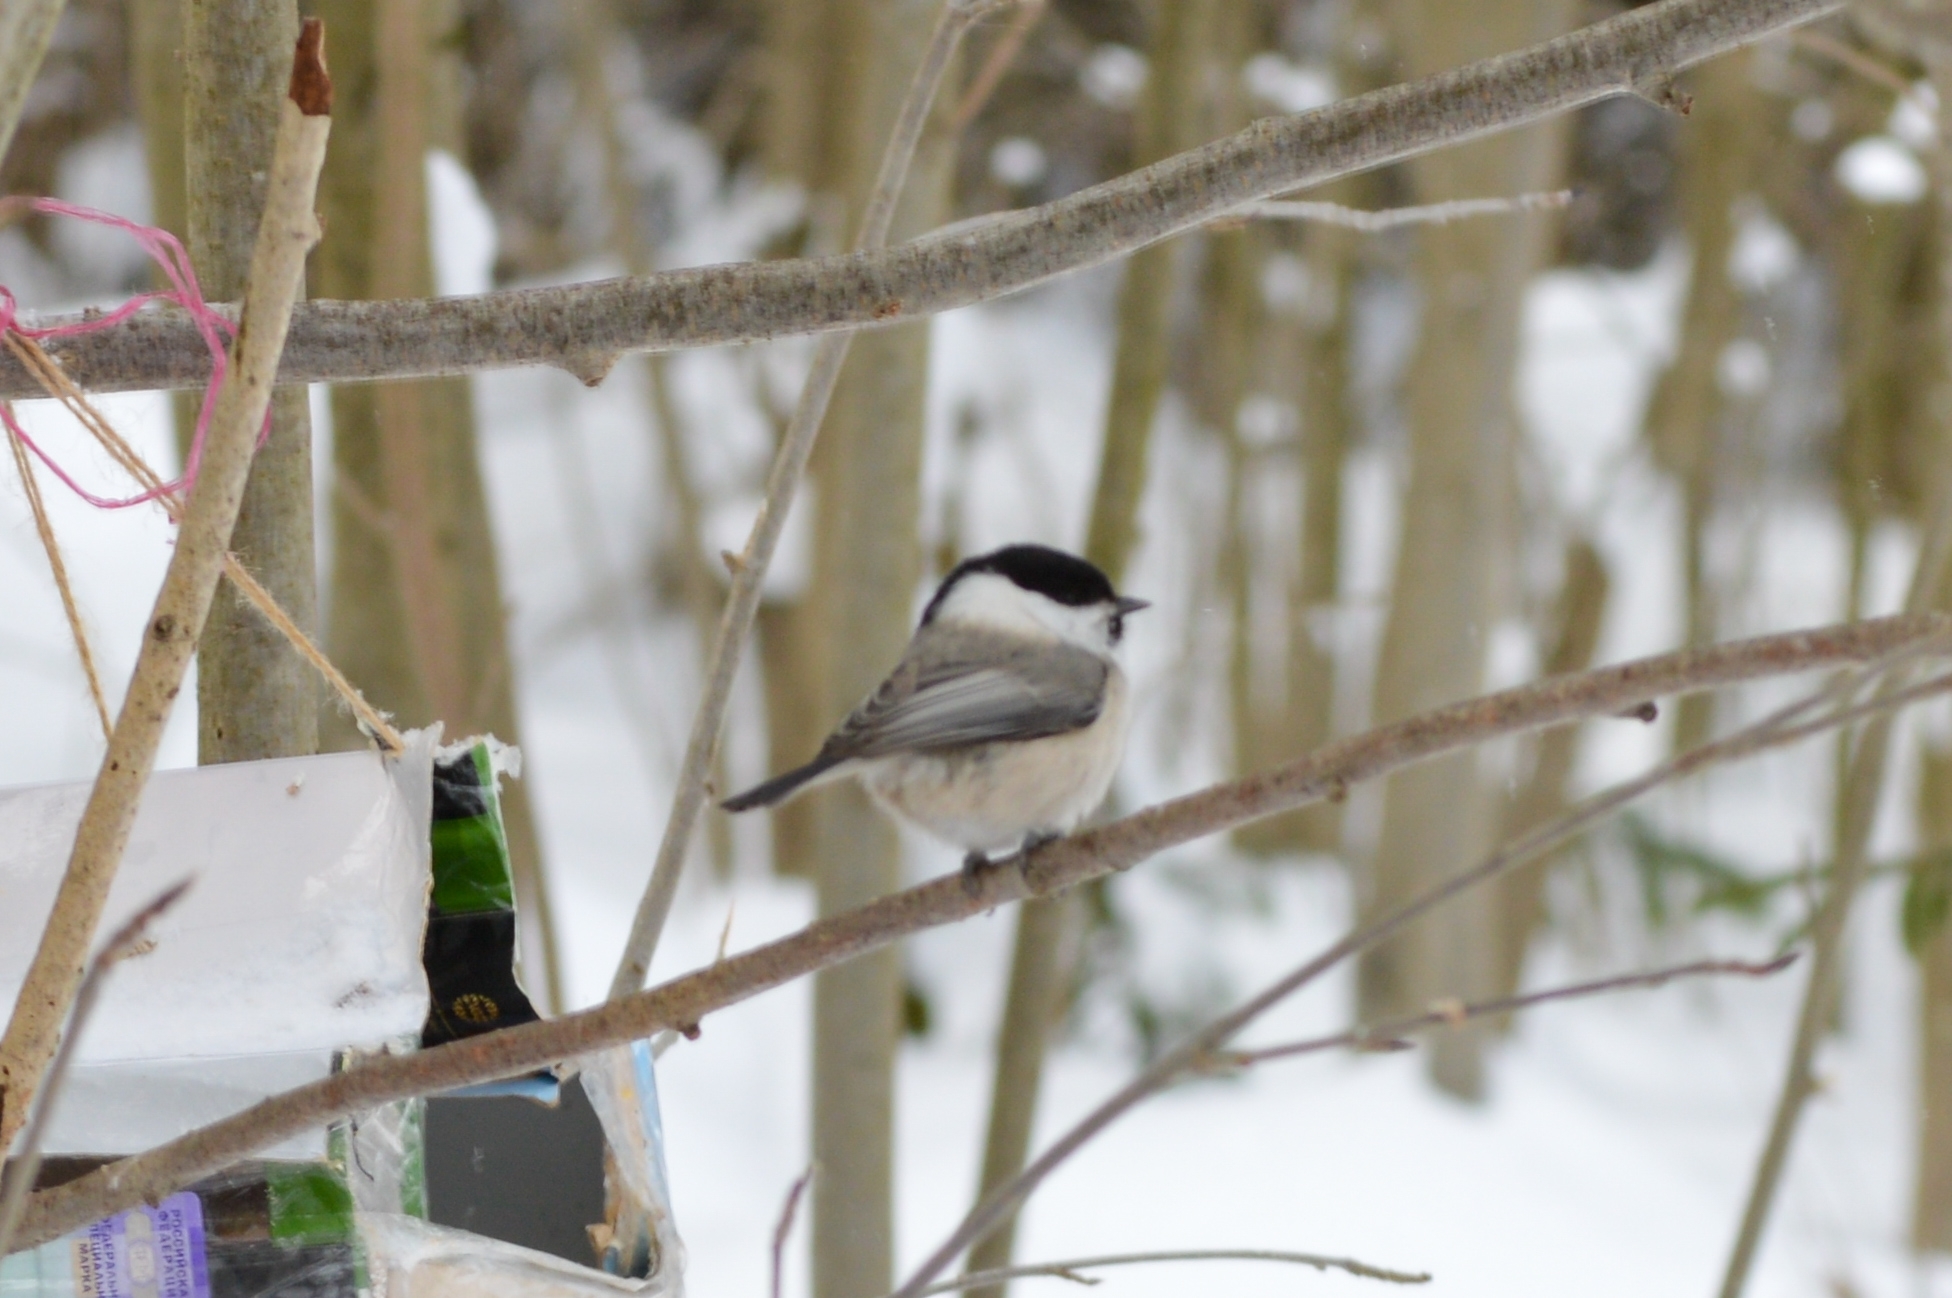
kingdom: Animalia
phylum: Chordata
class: Aves
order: Passeriformes
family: Paridae
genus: Poecile
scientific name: Poecile montanus
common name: Willow tit
